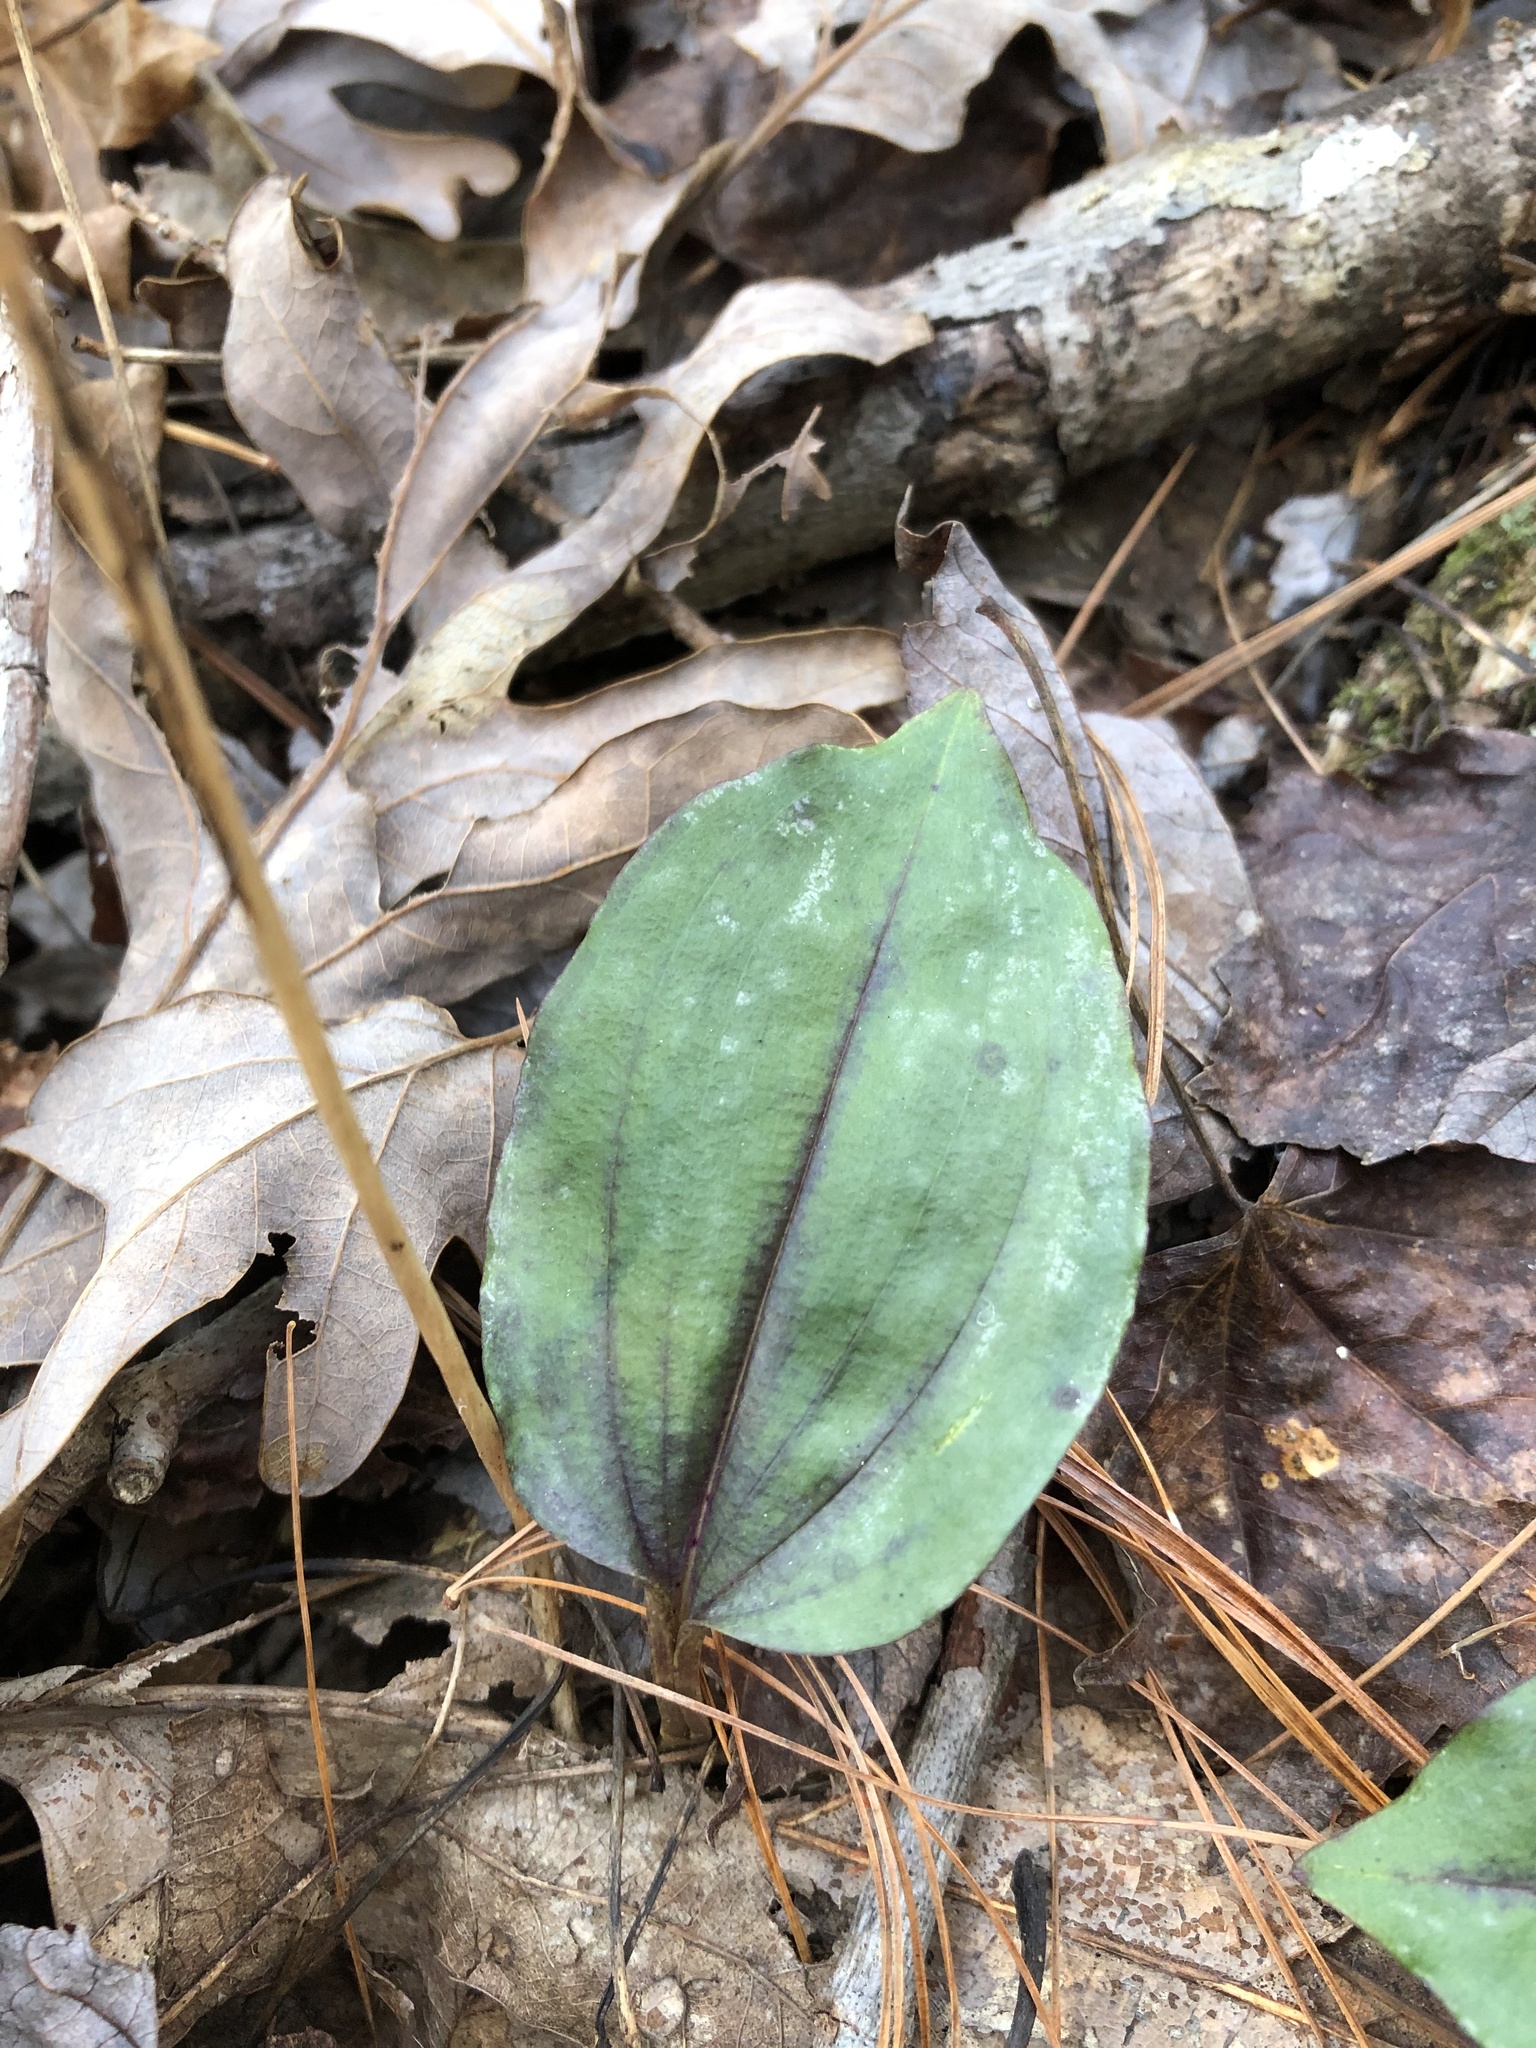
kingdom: Plantae
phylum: Tracheophyta
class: Liliopsida
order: Asparagales
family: Orchidaceae
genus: Tipularia
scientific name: Tipularia discolor
